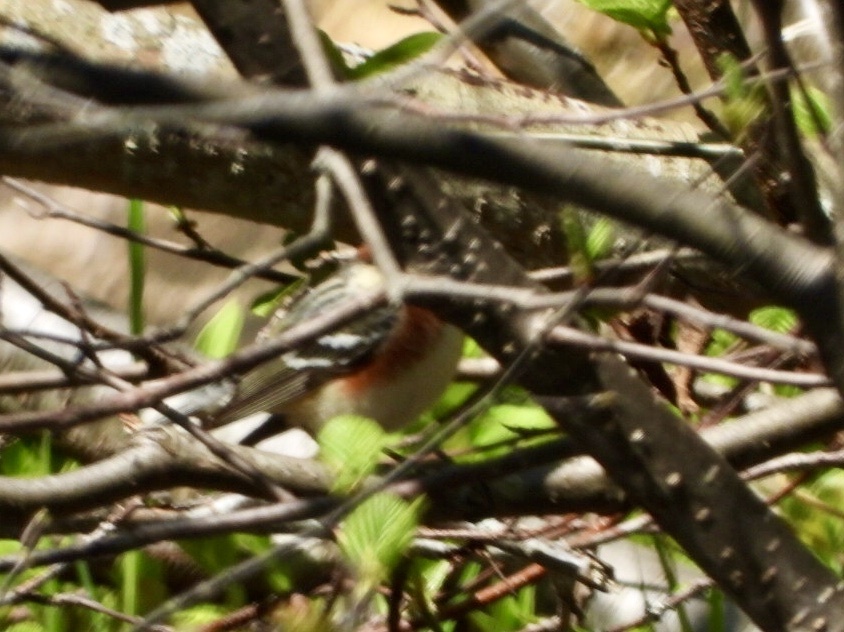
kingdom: Animalia
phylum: Chordata
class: Aves
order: Passeriformes
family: Parulidae
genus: Setophaga
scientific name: Setophaga castanea
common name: Bay-breasted warbler
